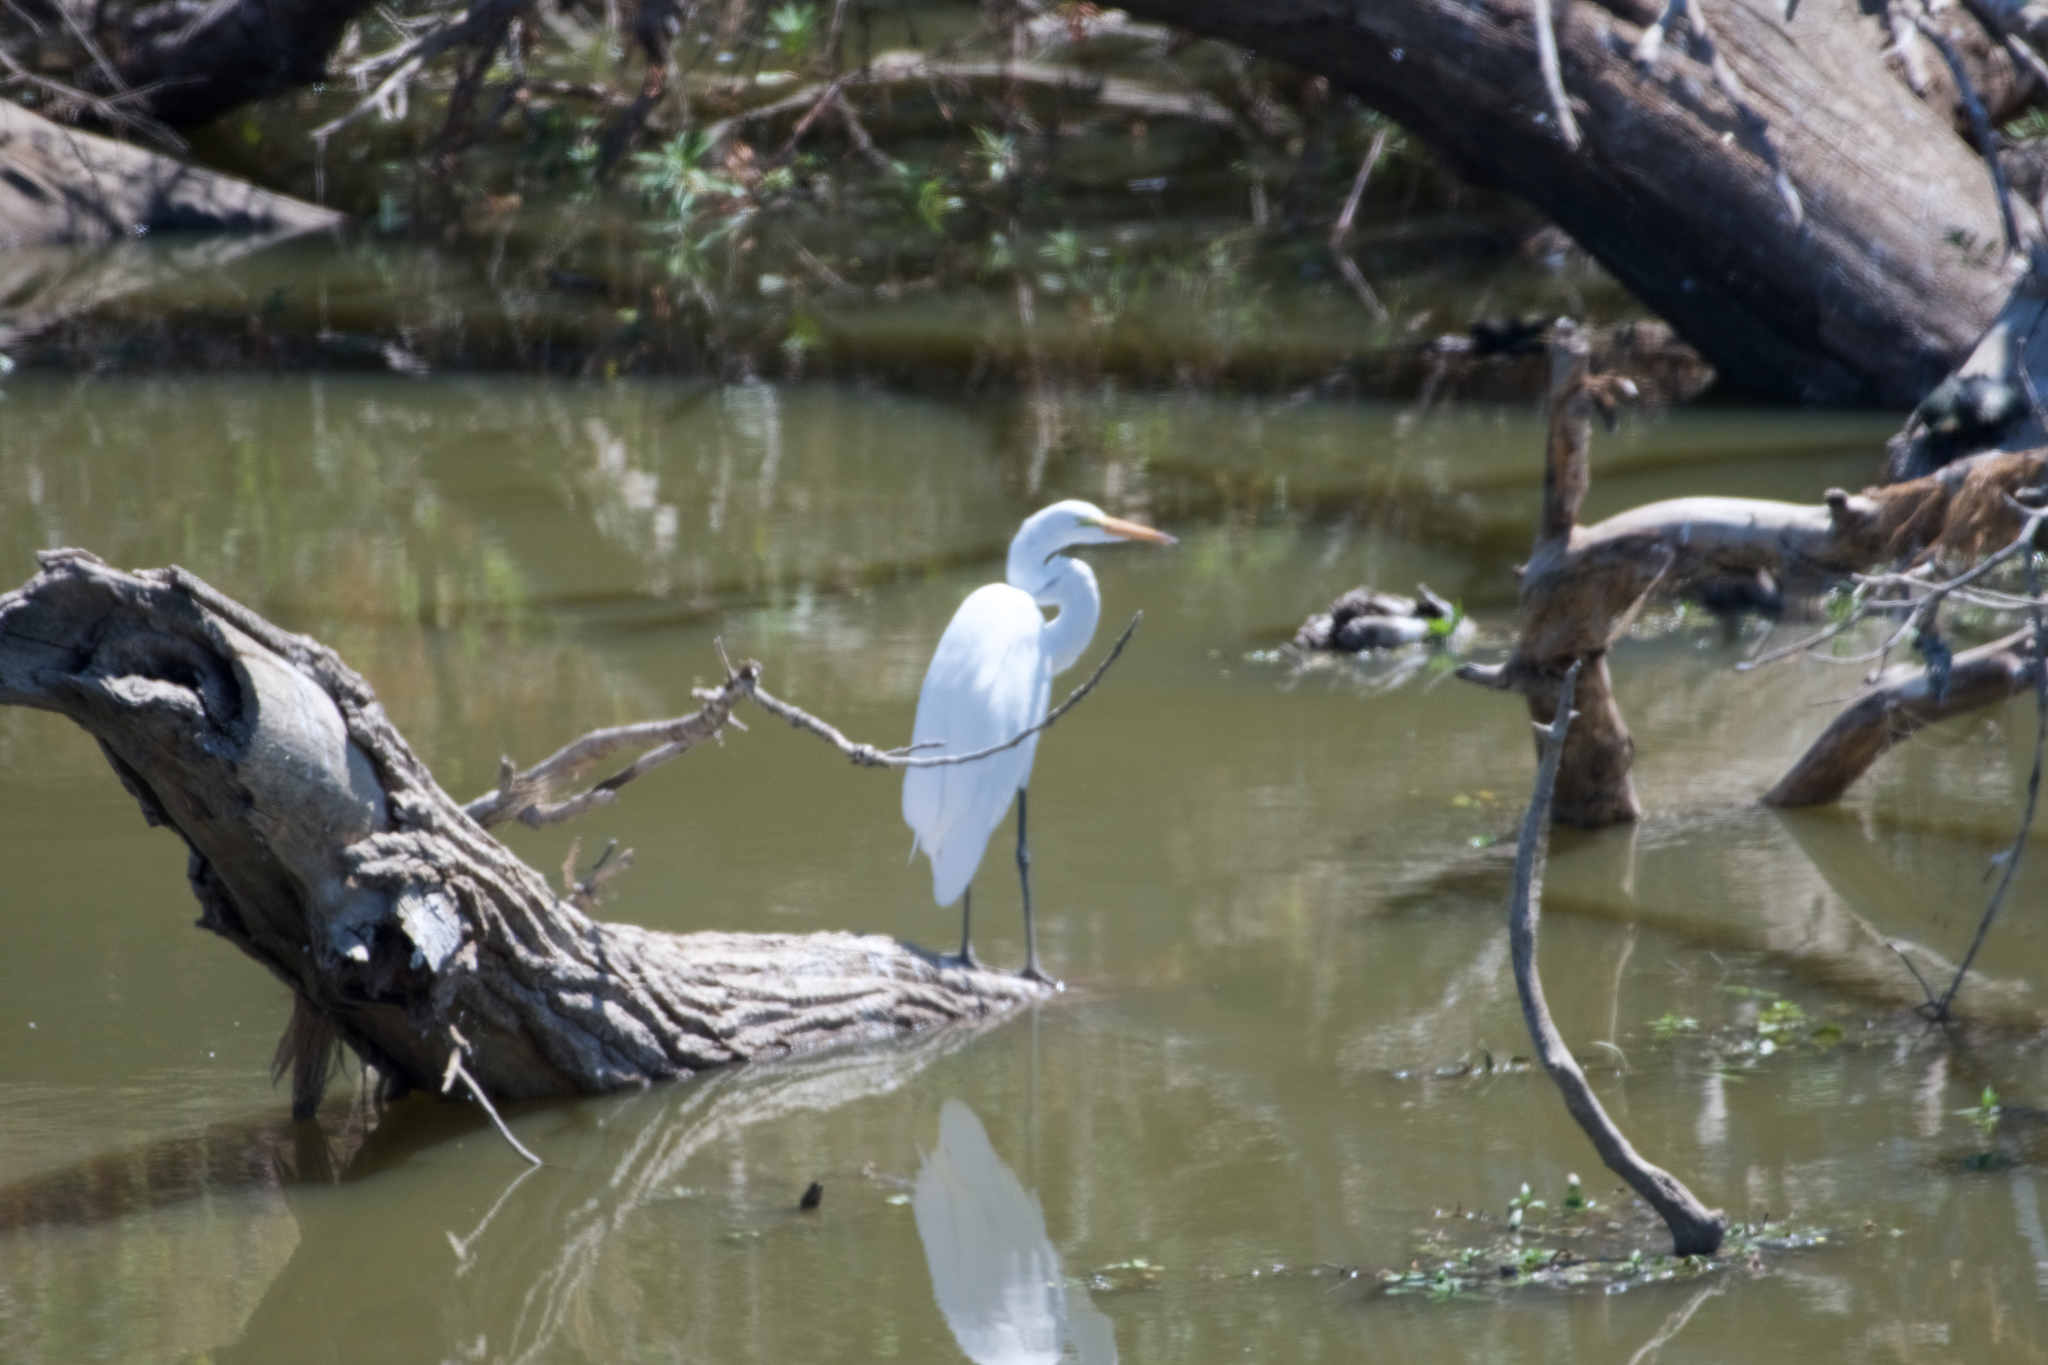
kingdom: Animalia
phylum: Chordata
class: Aves
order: Pelecaniformes
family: Ardeidae
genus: Ardea
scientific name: Ardea alba
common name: Great egret
